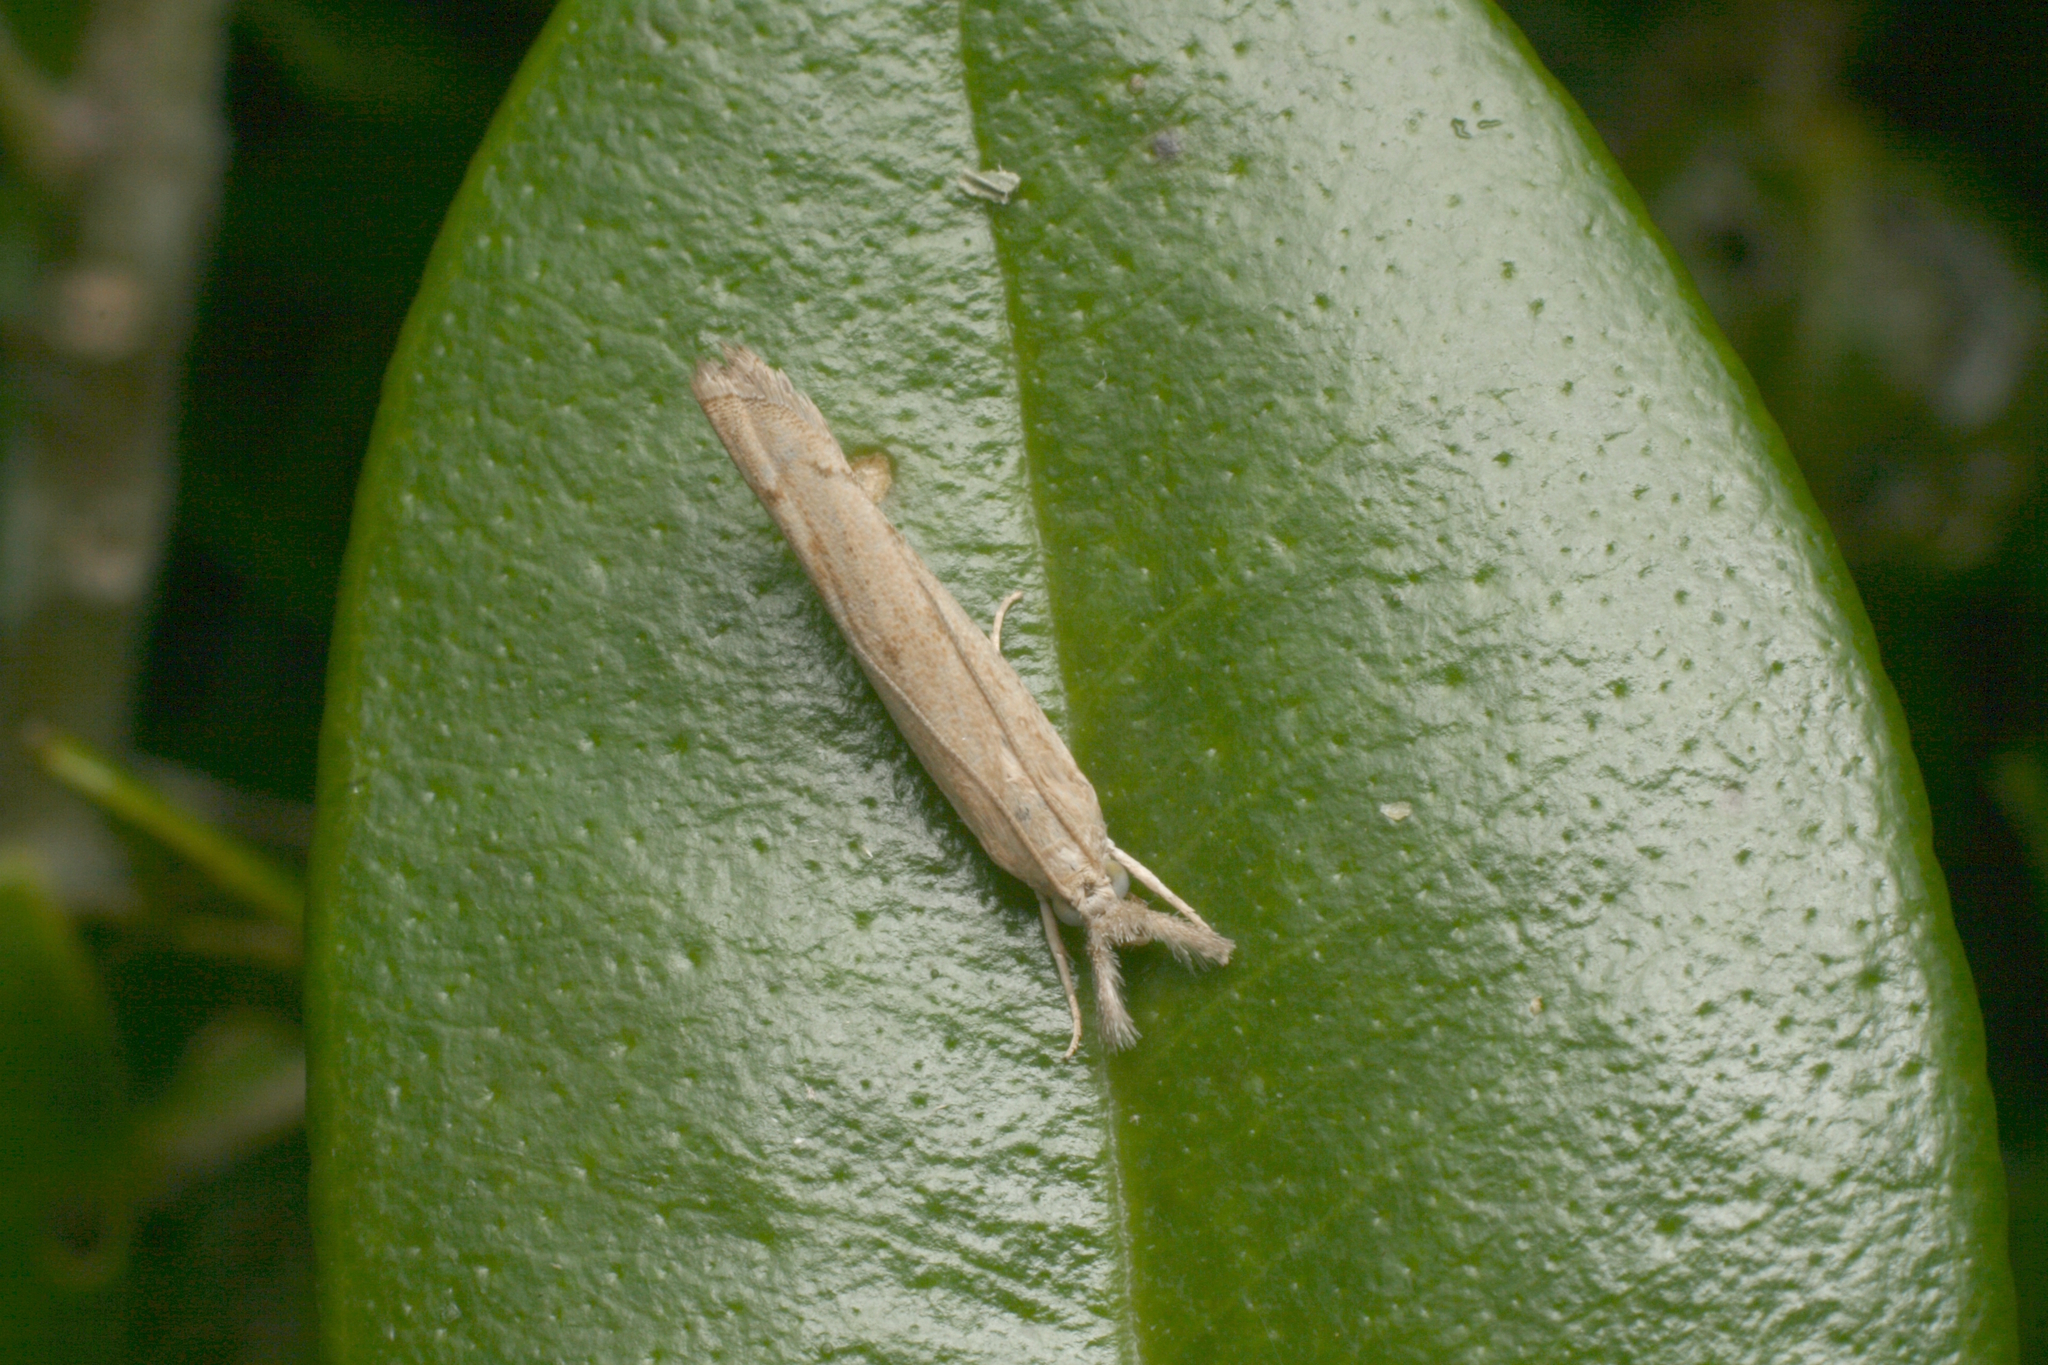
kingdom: Animalia
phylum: Arthropoda
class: Insecta
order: Lepidoptera
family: Crambidae
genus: Culladia
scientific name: Culladia cuneiferellus
